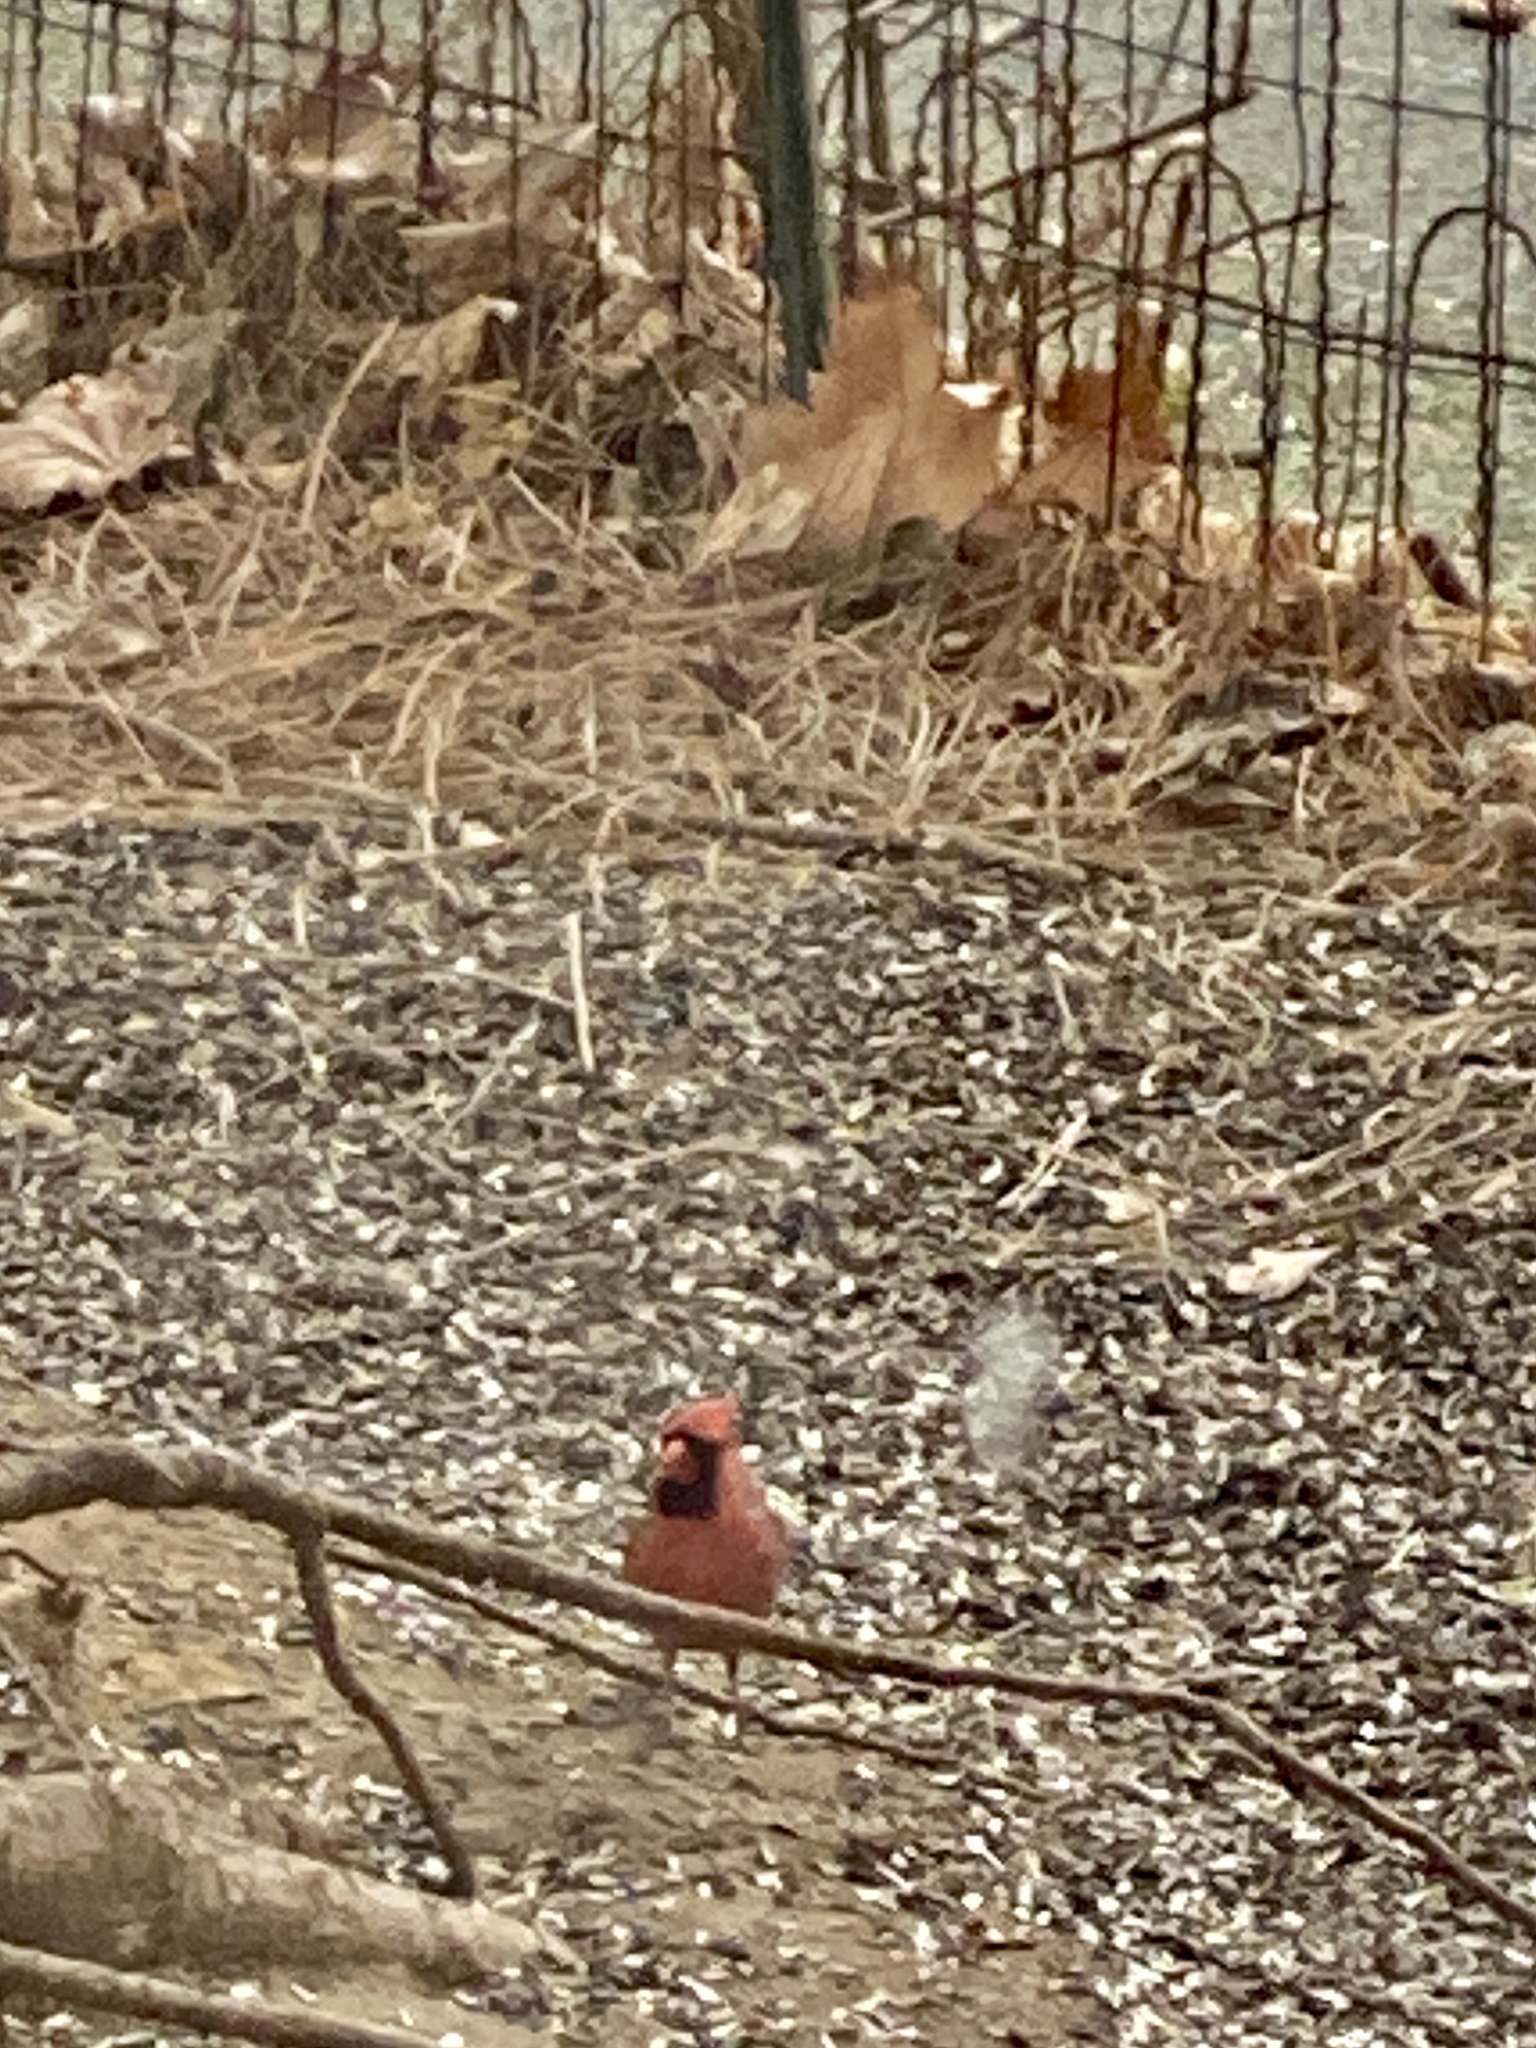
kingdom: Animalia
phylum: Chordata
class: Aves
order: Passeriformes
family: Cardinalidae
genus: Cardinalis
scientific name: Cardinalis cardinalis
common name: Northern cardinal
